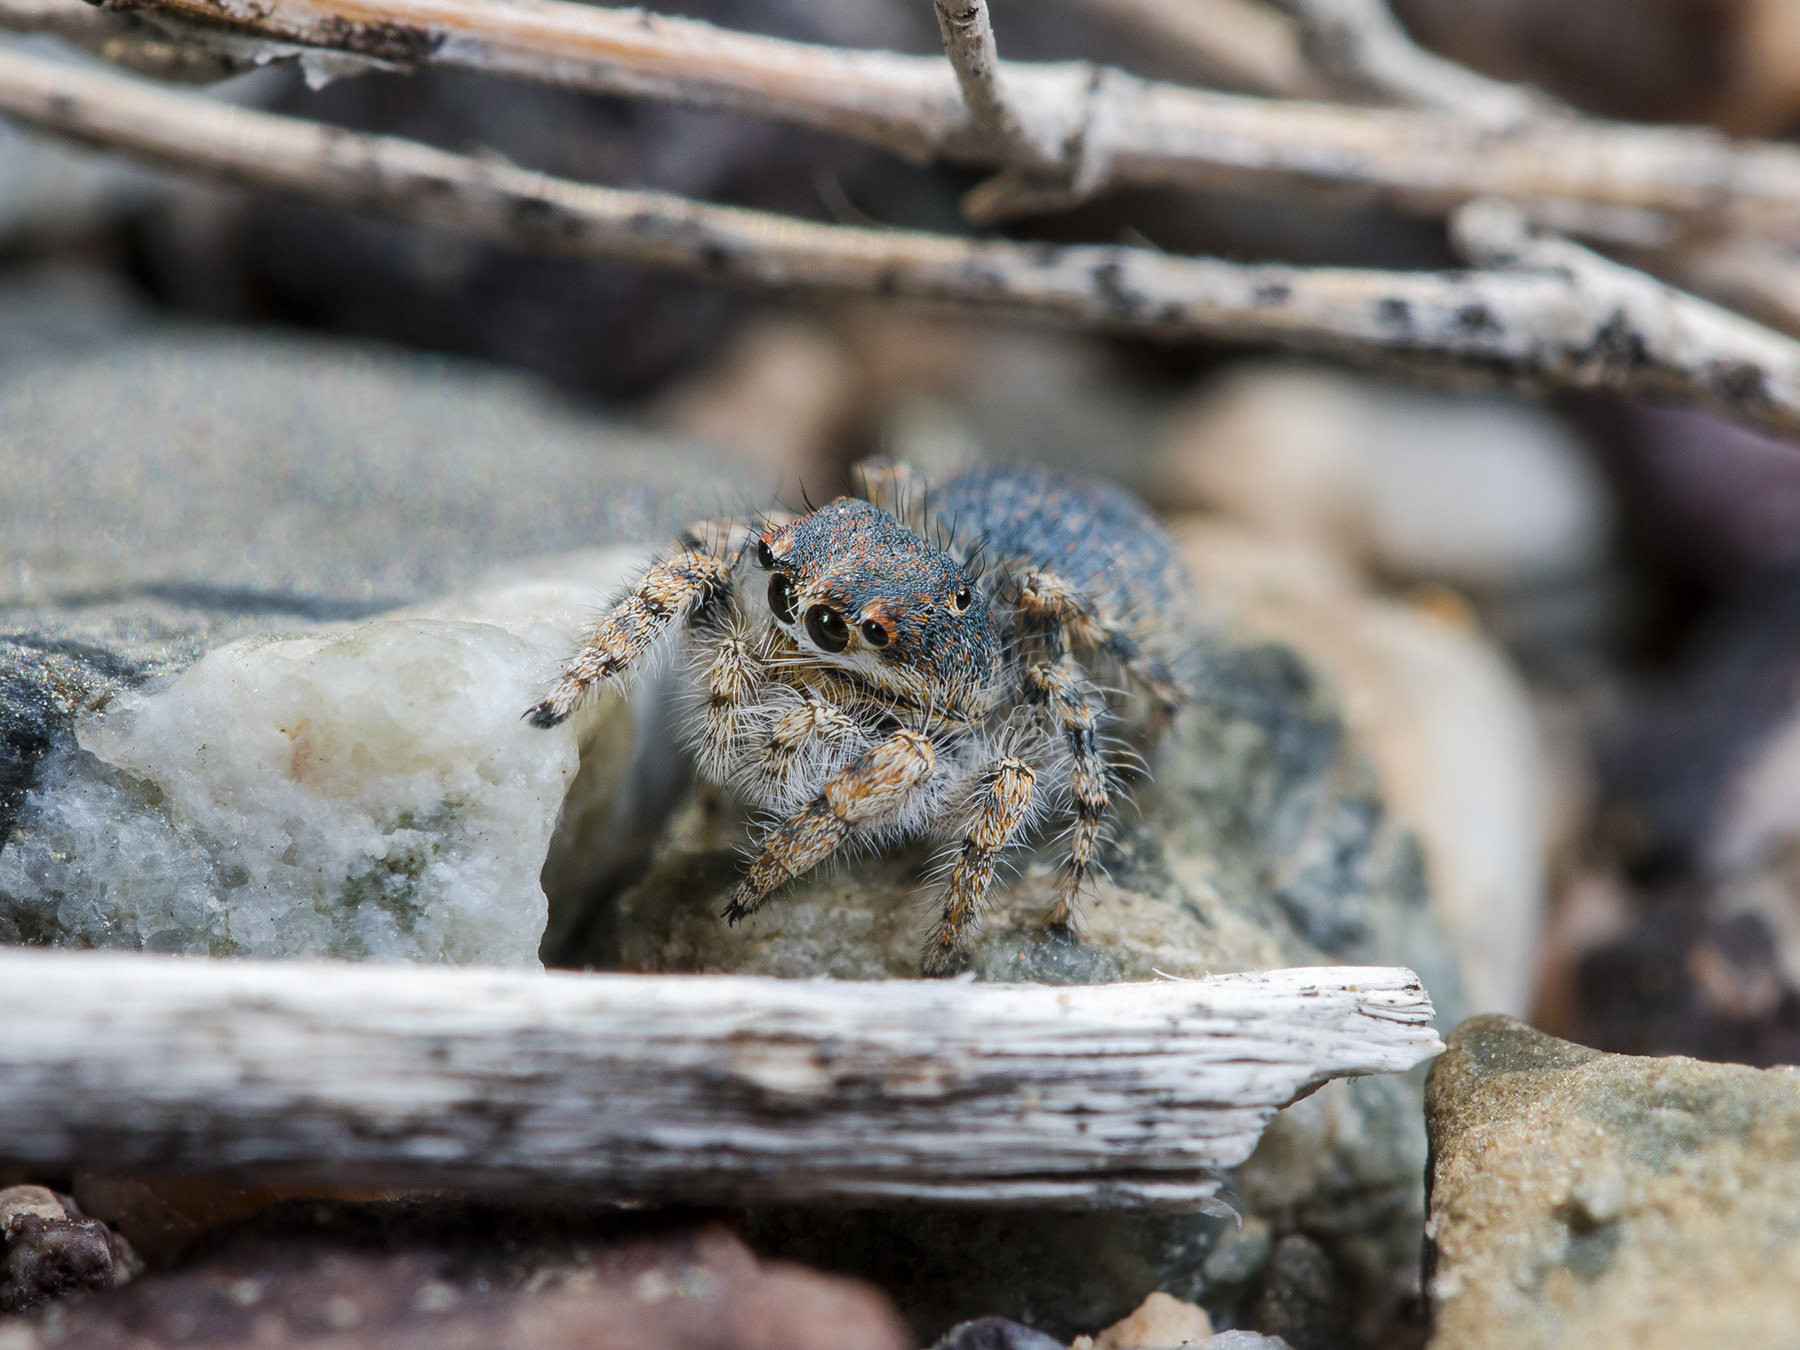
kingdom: Animalia
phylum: Arthropoda
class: Arachnida
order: Araneae
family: Salticidae
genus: Yllenus
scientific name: Yllenus zyuzini
